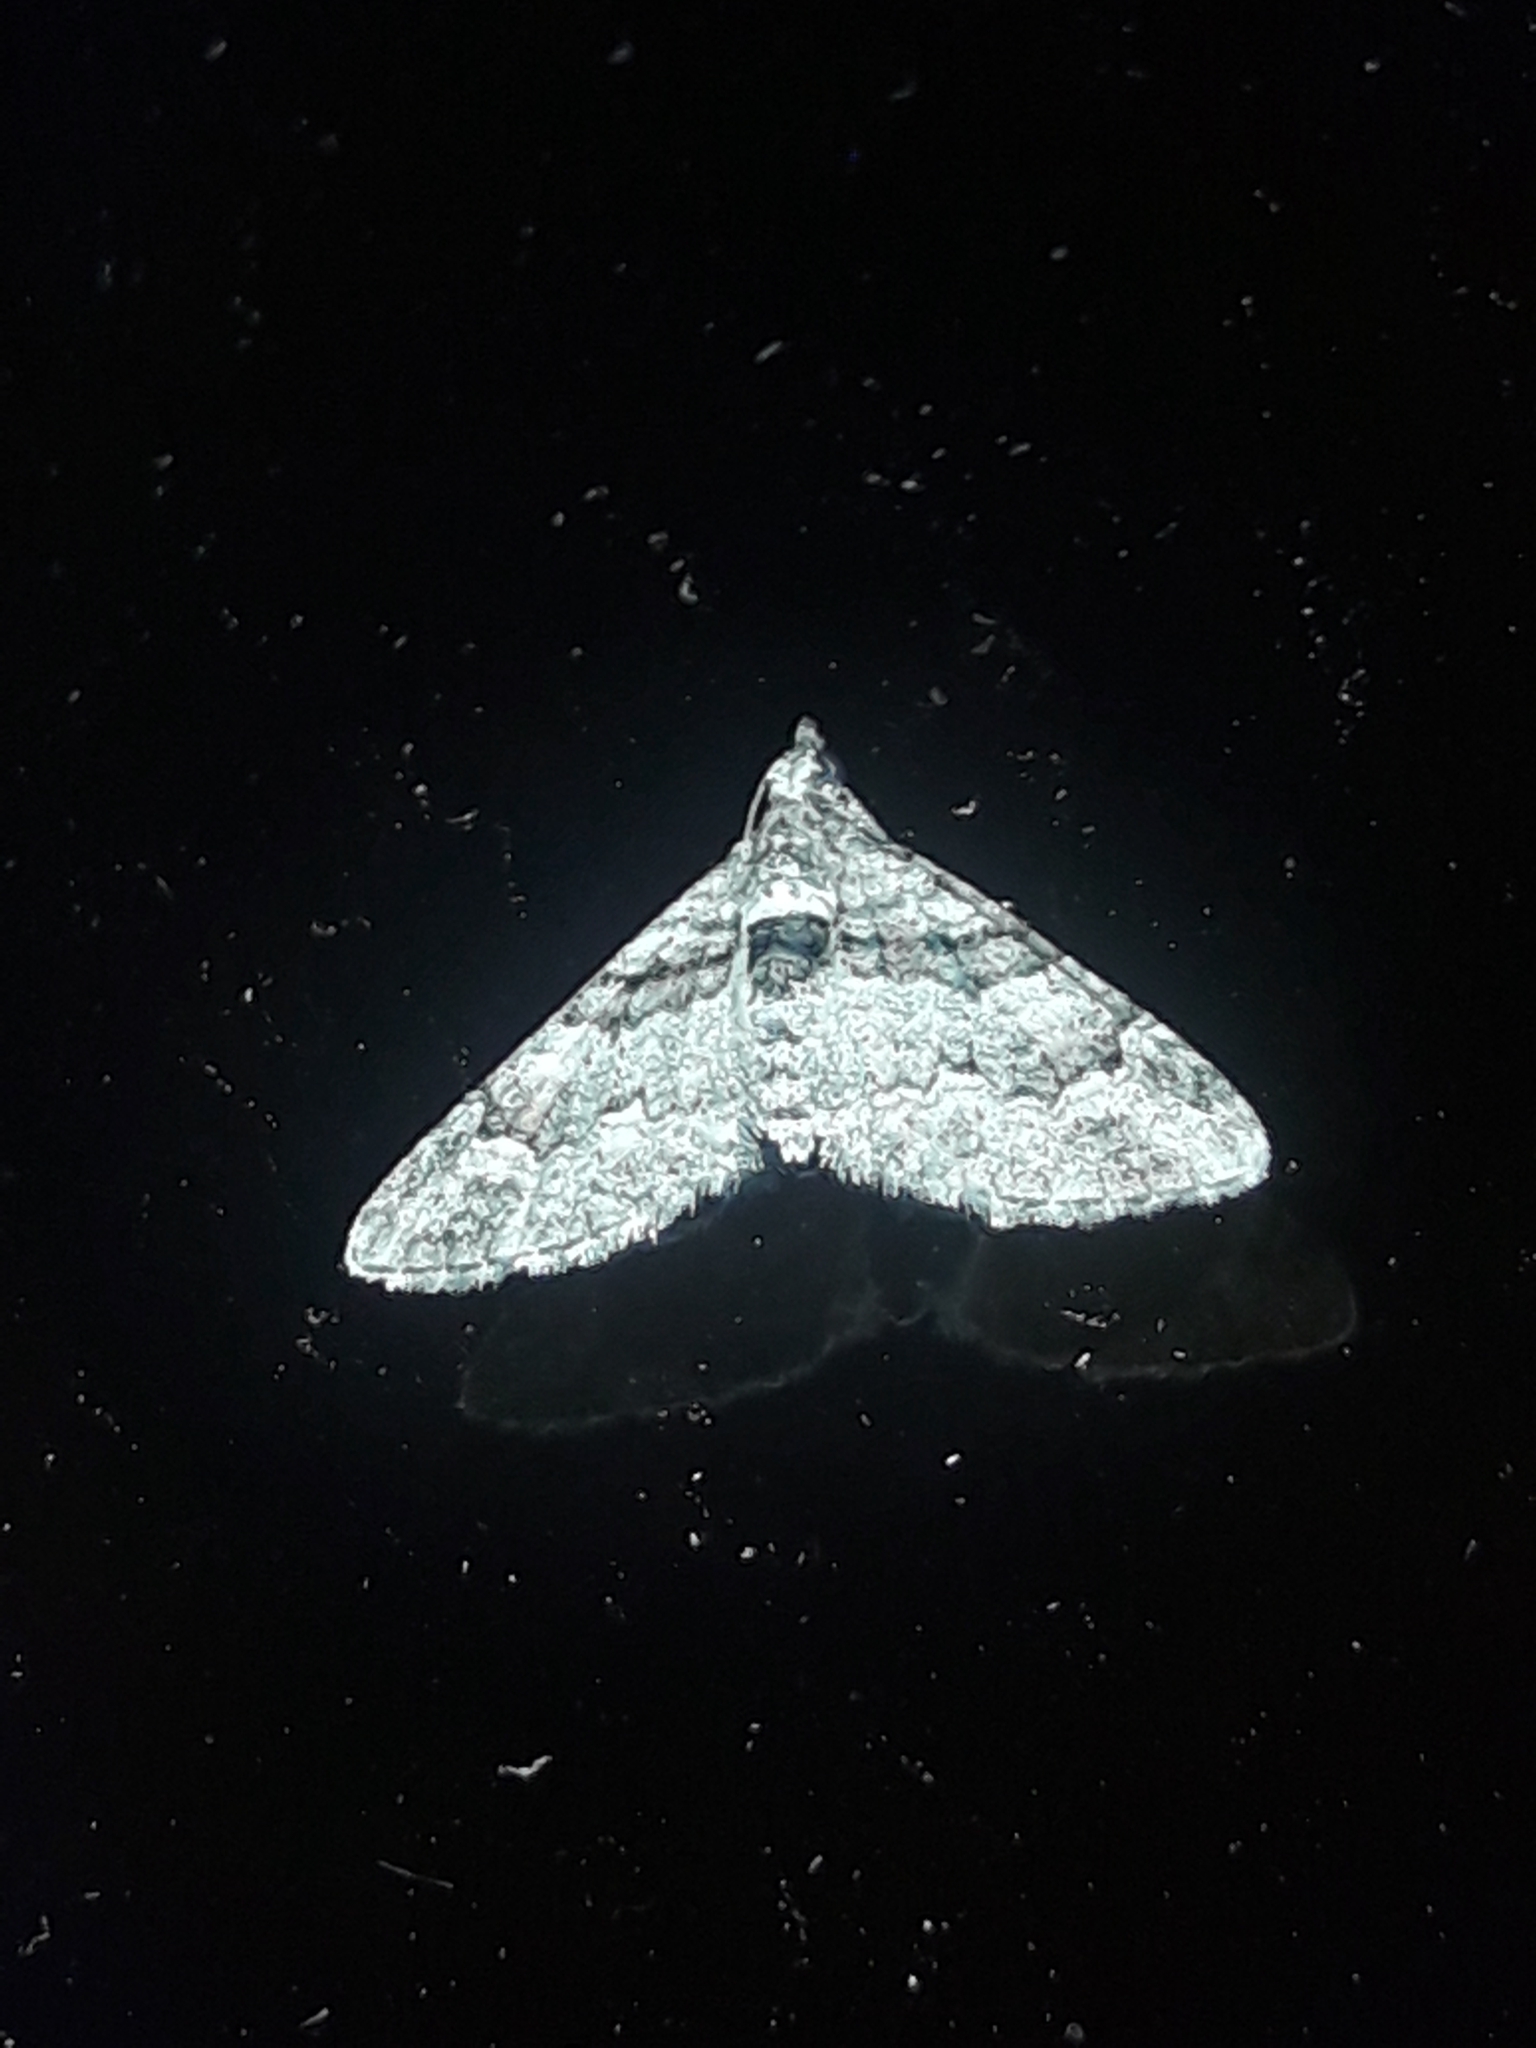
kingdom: Animalia
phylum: Arthropoda
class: Insecta
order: Lepidoptera
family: Geometridae
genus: Phrissogonus
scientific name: Phrissogonus laticostata
